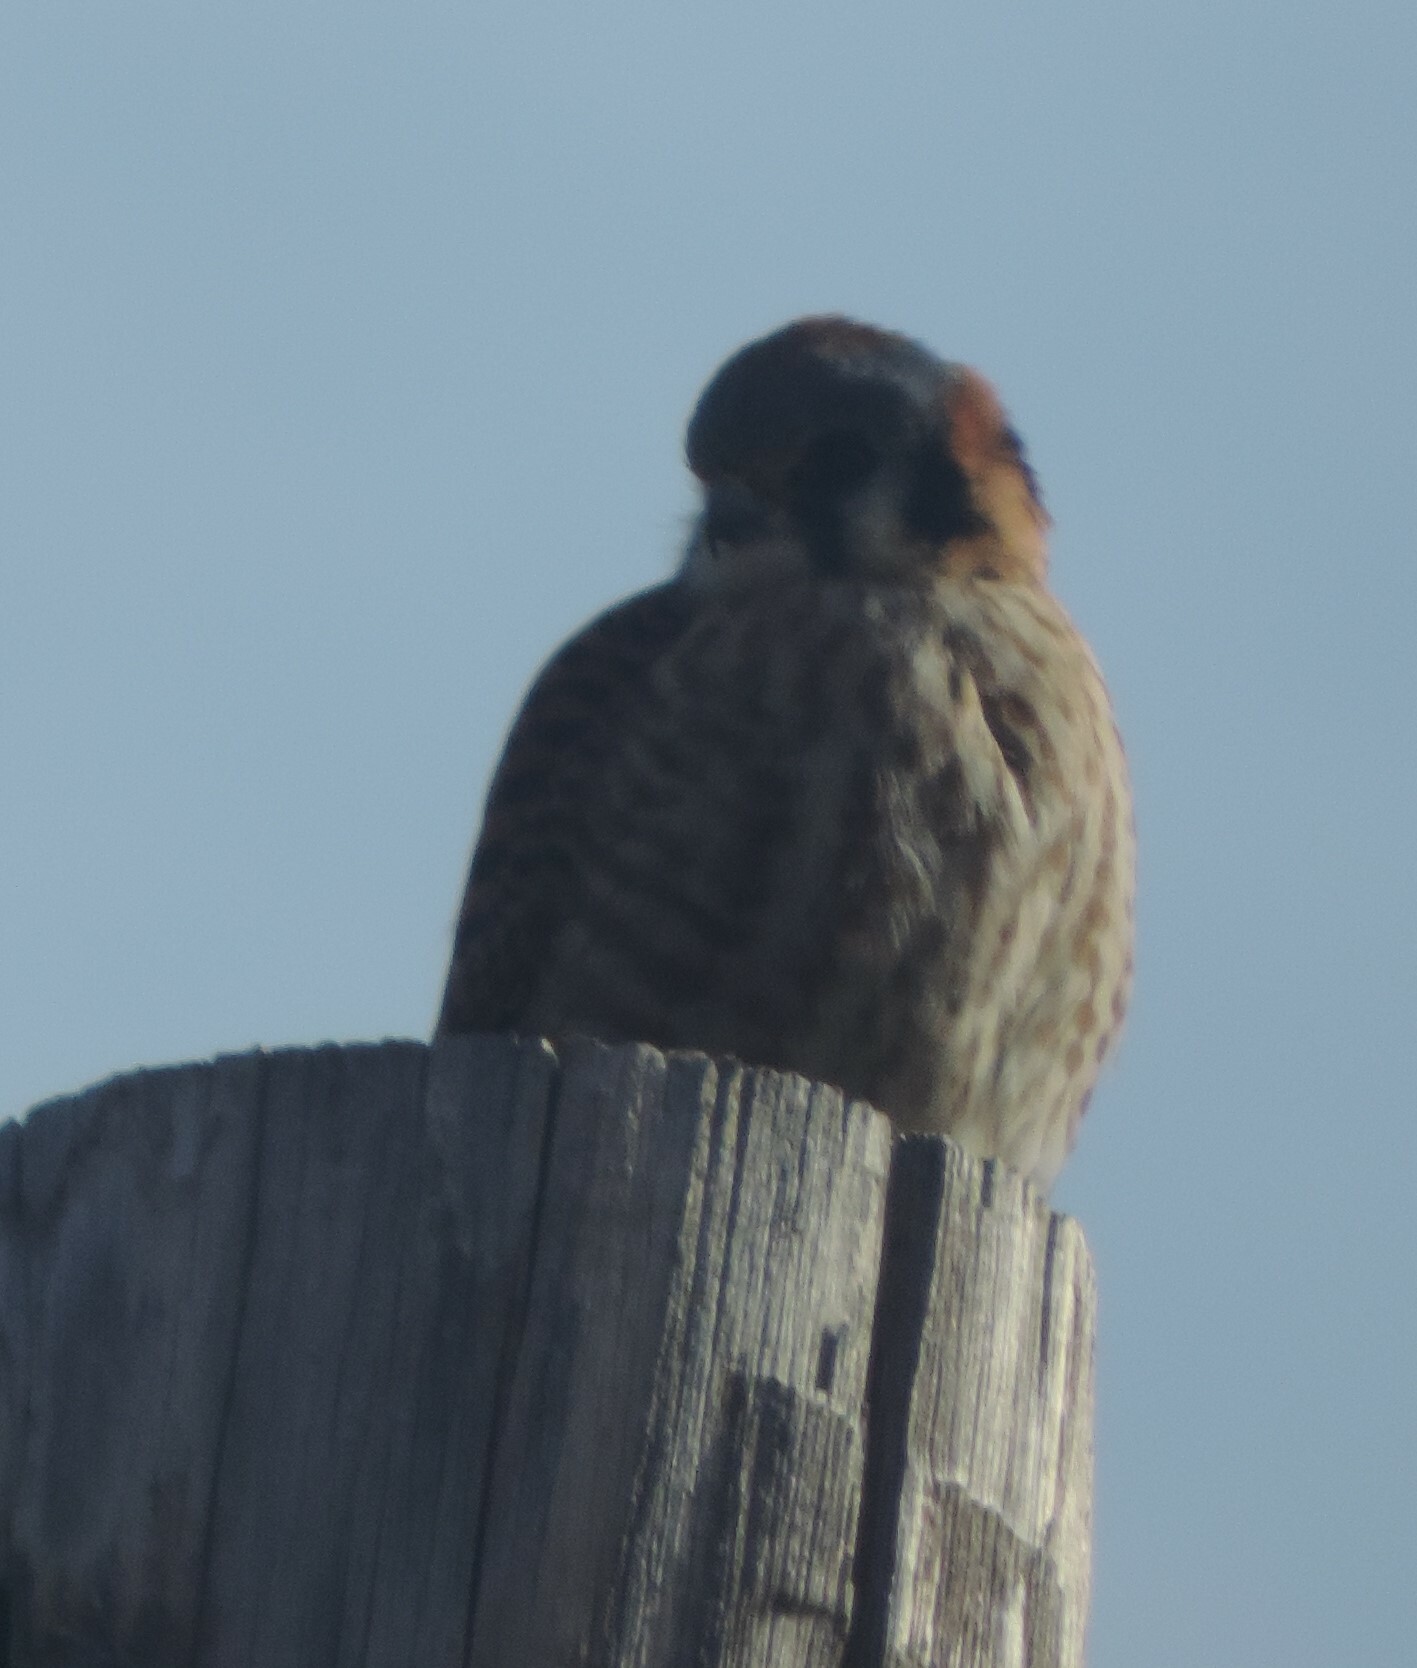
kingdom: Animalia
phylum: Chordata
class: Aves
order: Falconiformes
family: Falconidae
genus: Falco
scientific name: Falco sparverius
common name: American kestrel
